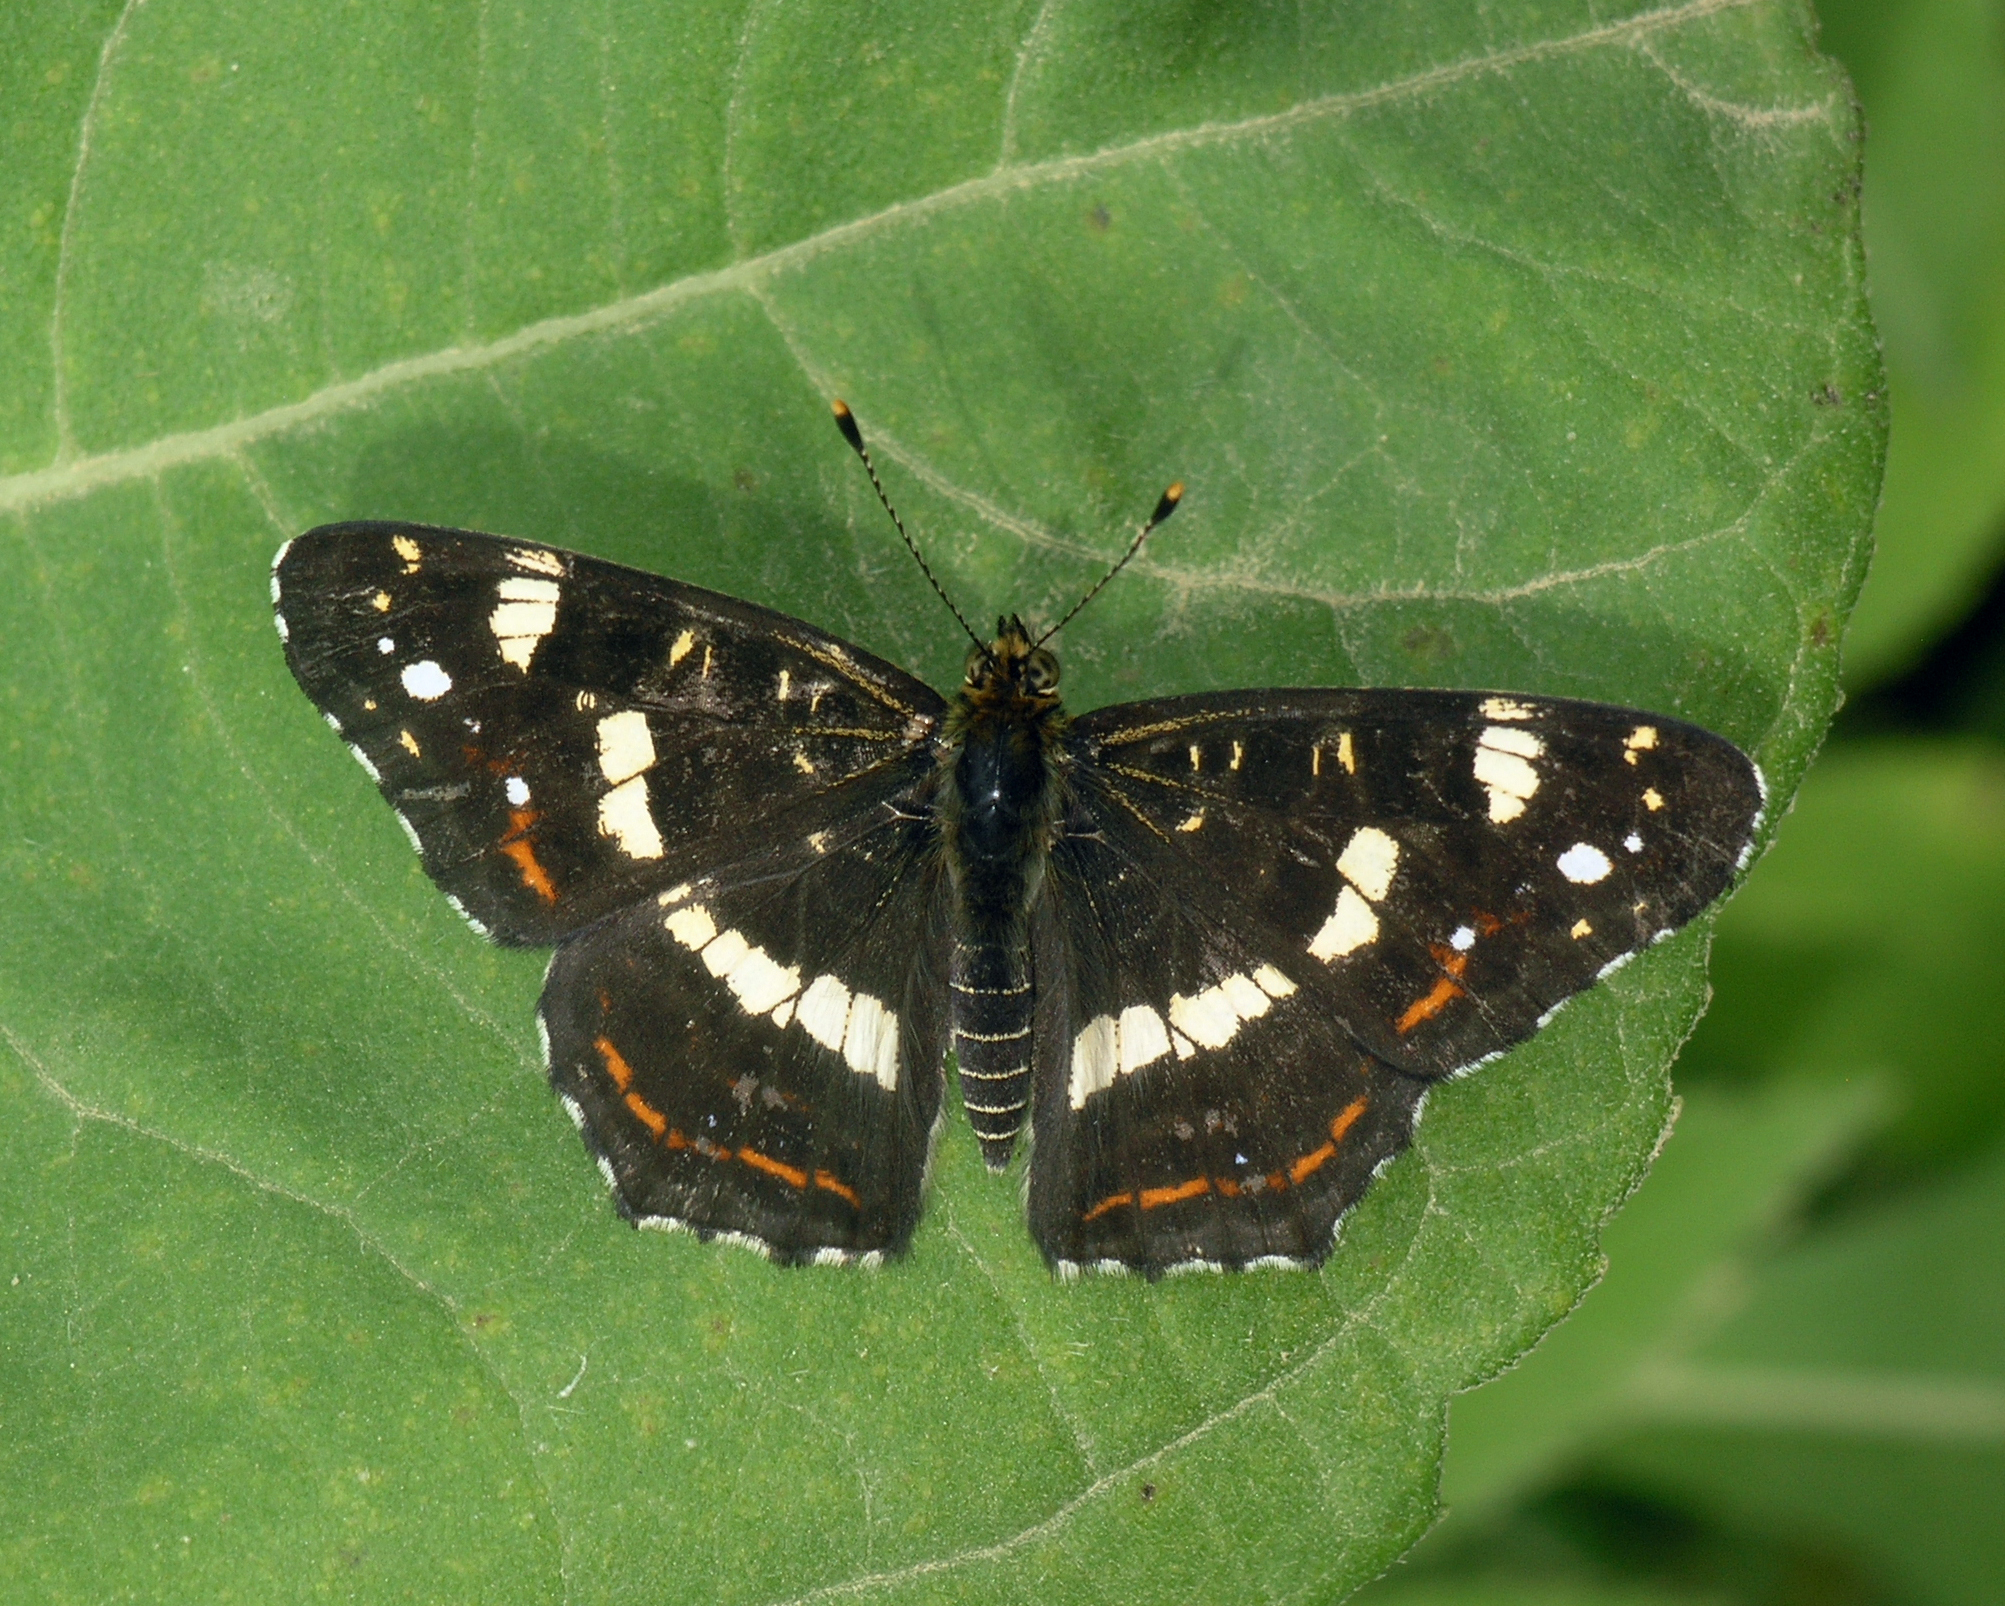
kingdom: Animalia
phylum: Arthropoda
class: Insecta
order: Lepidoptera
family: Nymphalidae
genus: Araschnia
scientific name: Araschnia levana
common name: Map butterfly
